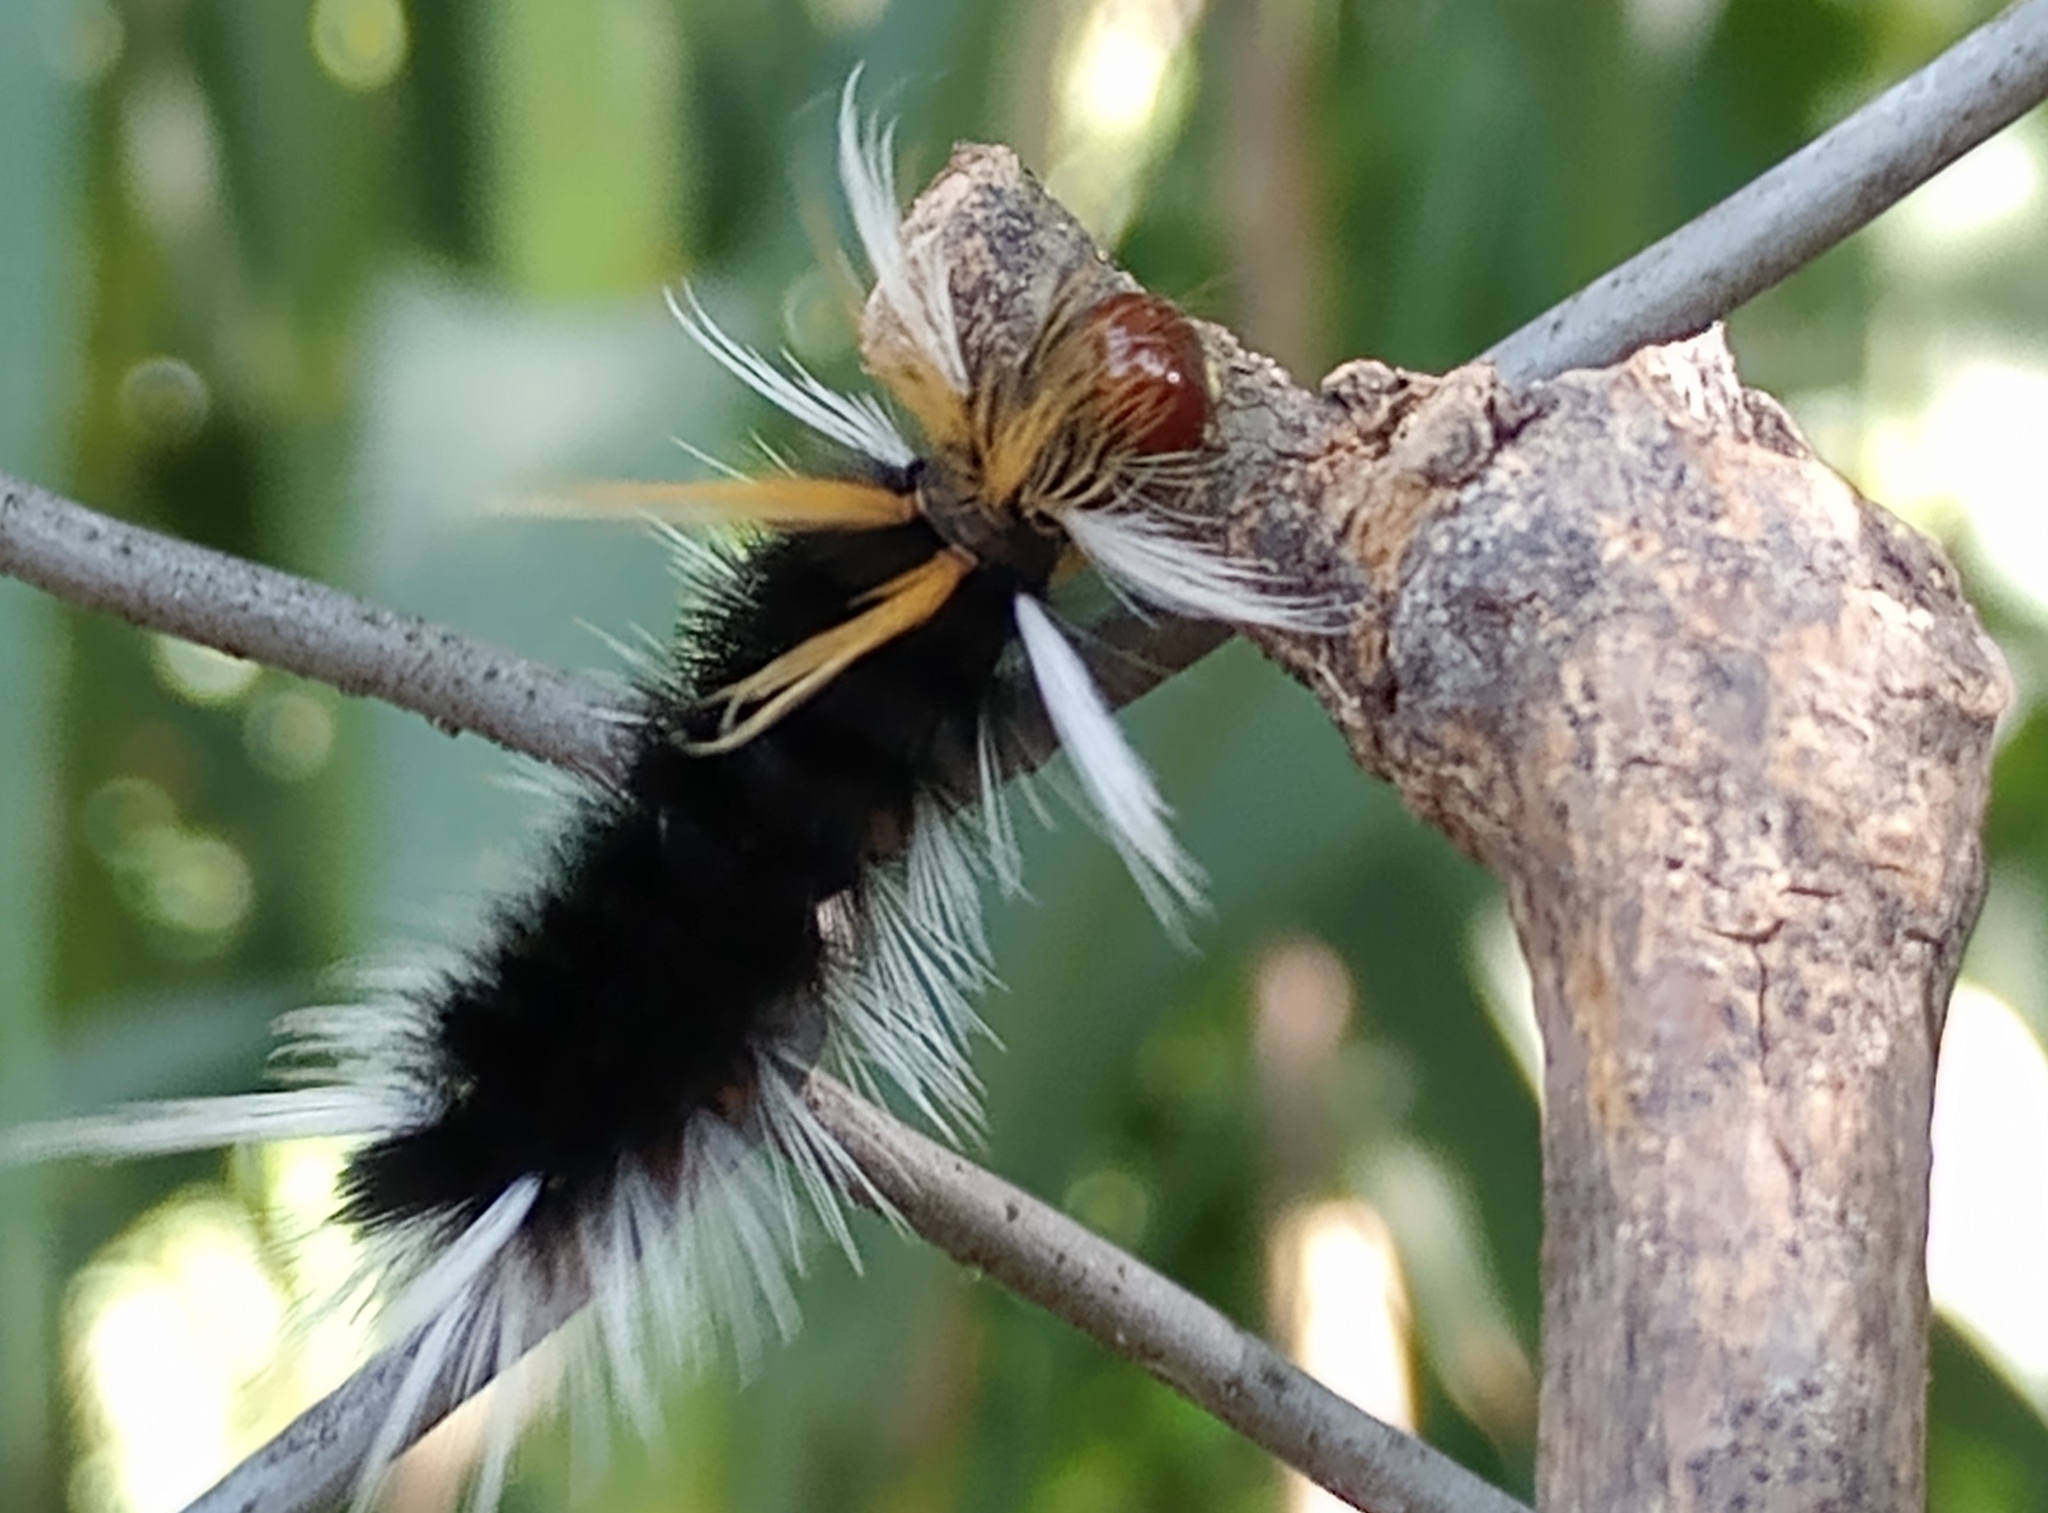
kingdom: Animalia
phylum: Arthropoda
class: Insecta
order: Lepidoptera
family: Erebidae
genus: Halysidota
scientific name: Halysidota ruscheweyhi
